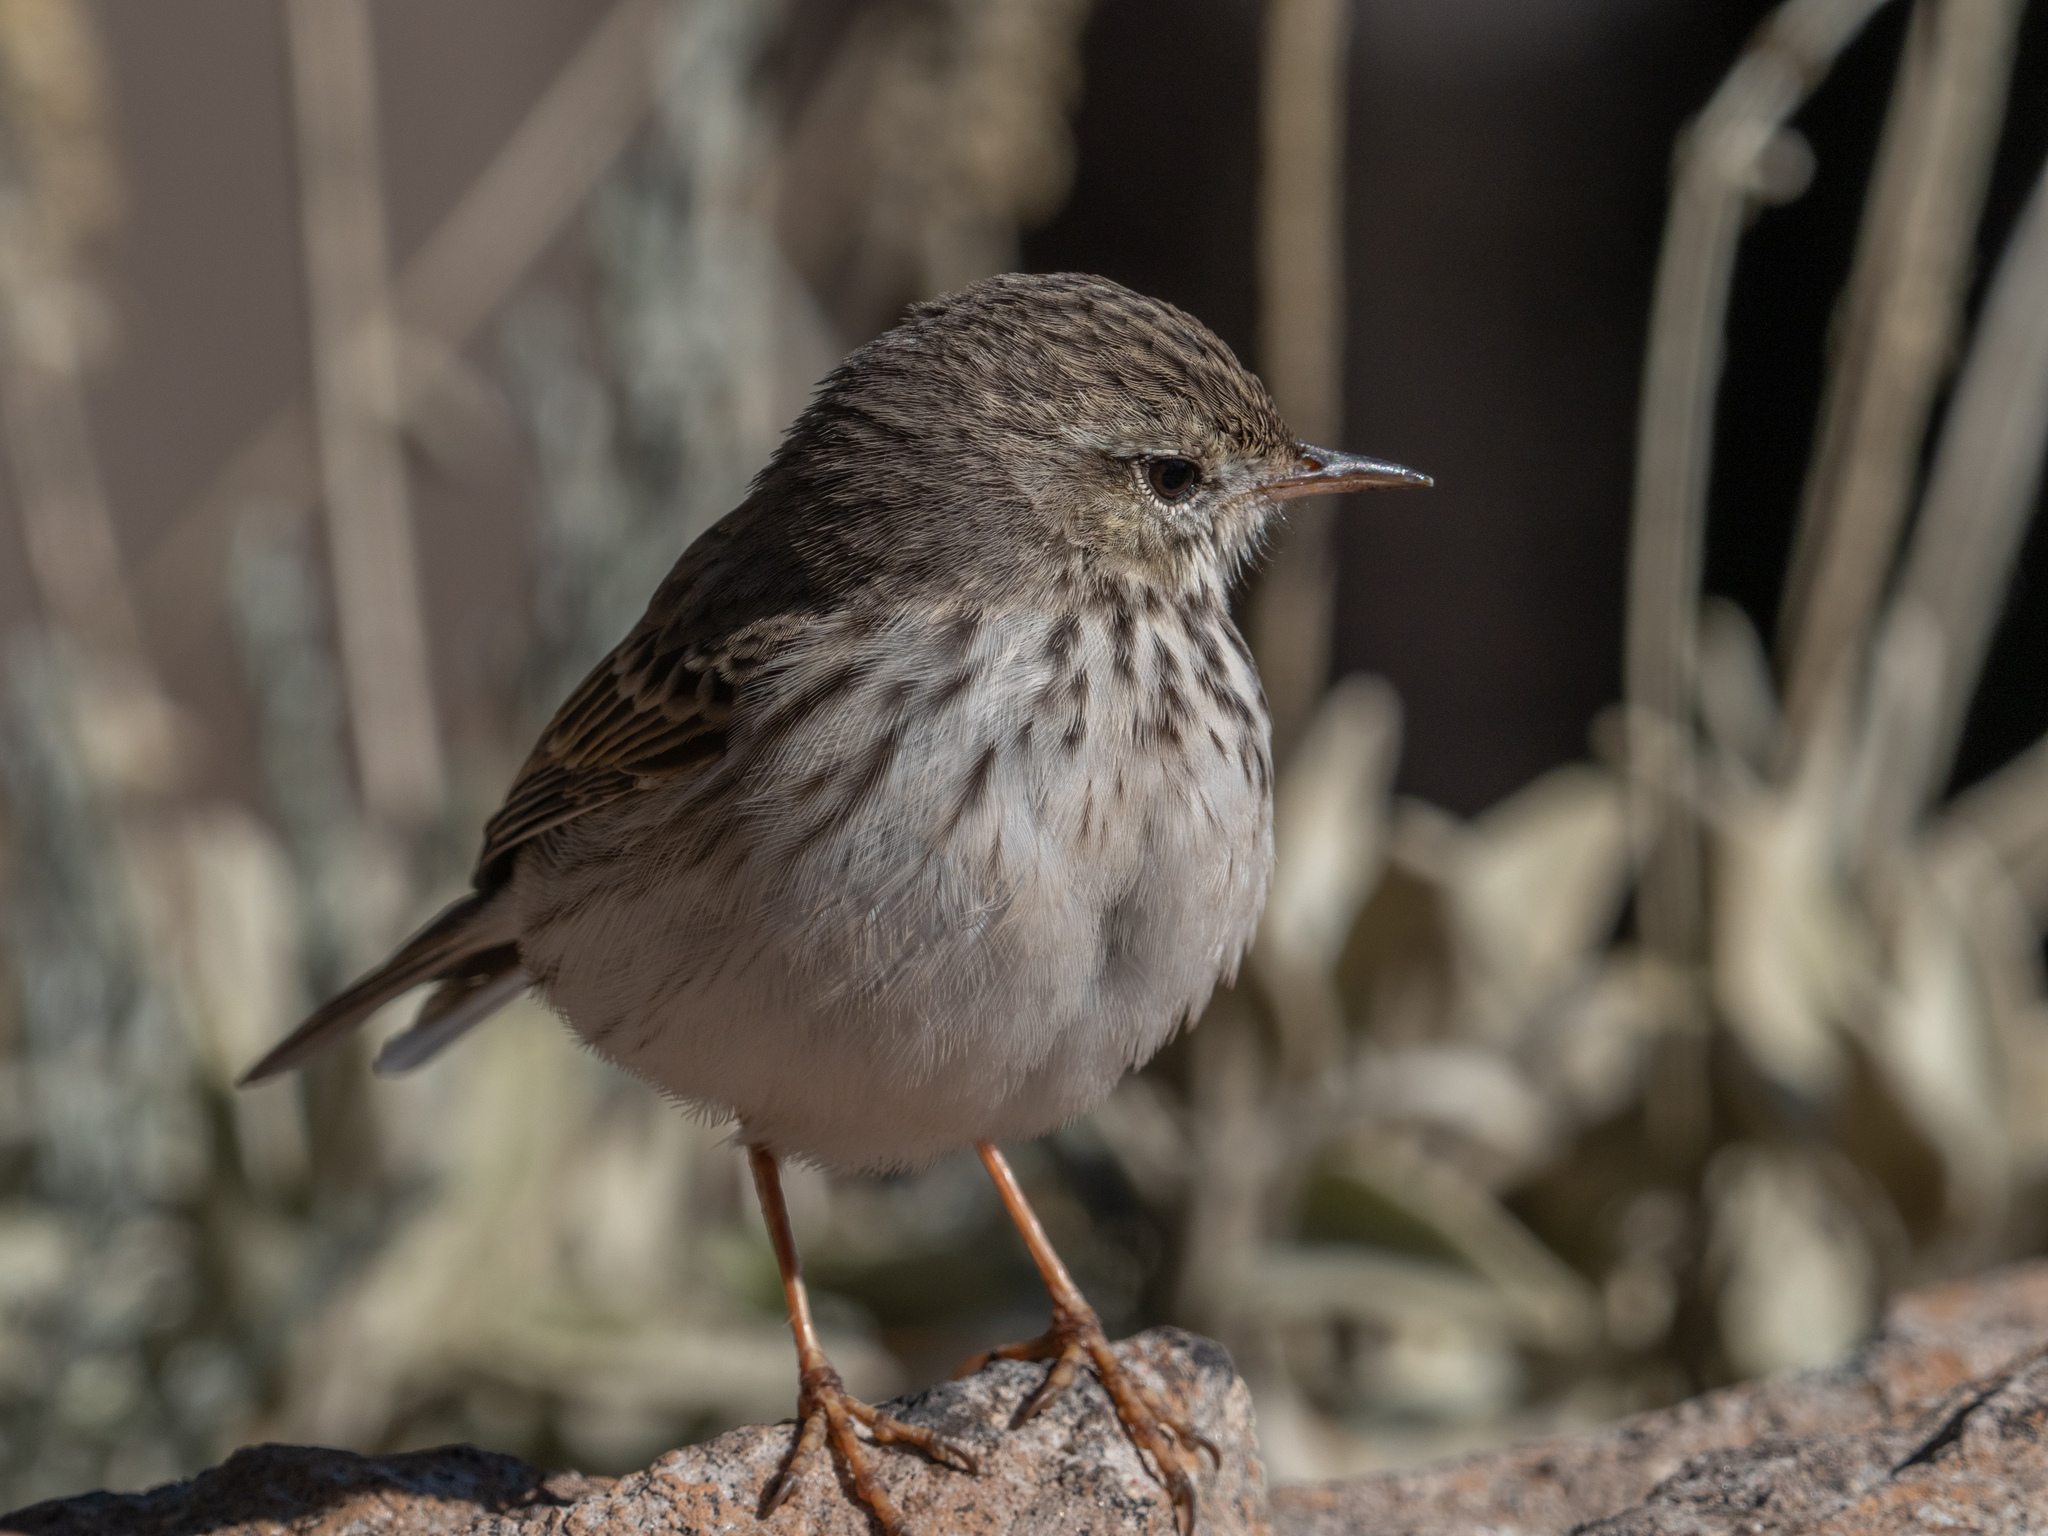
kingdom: Animalia
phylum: Chordata
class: Aves
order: Passeriformes
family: Motacillidae
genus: Anthus
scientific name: Anthus berthelotii
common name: Berthelot's pipit
